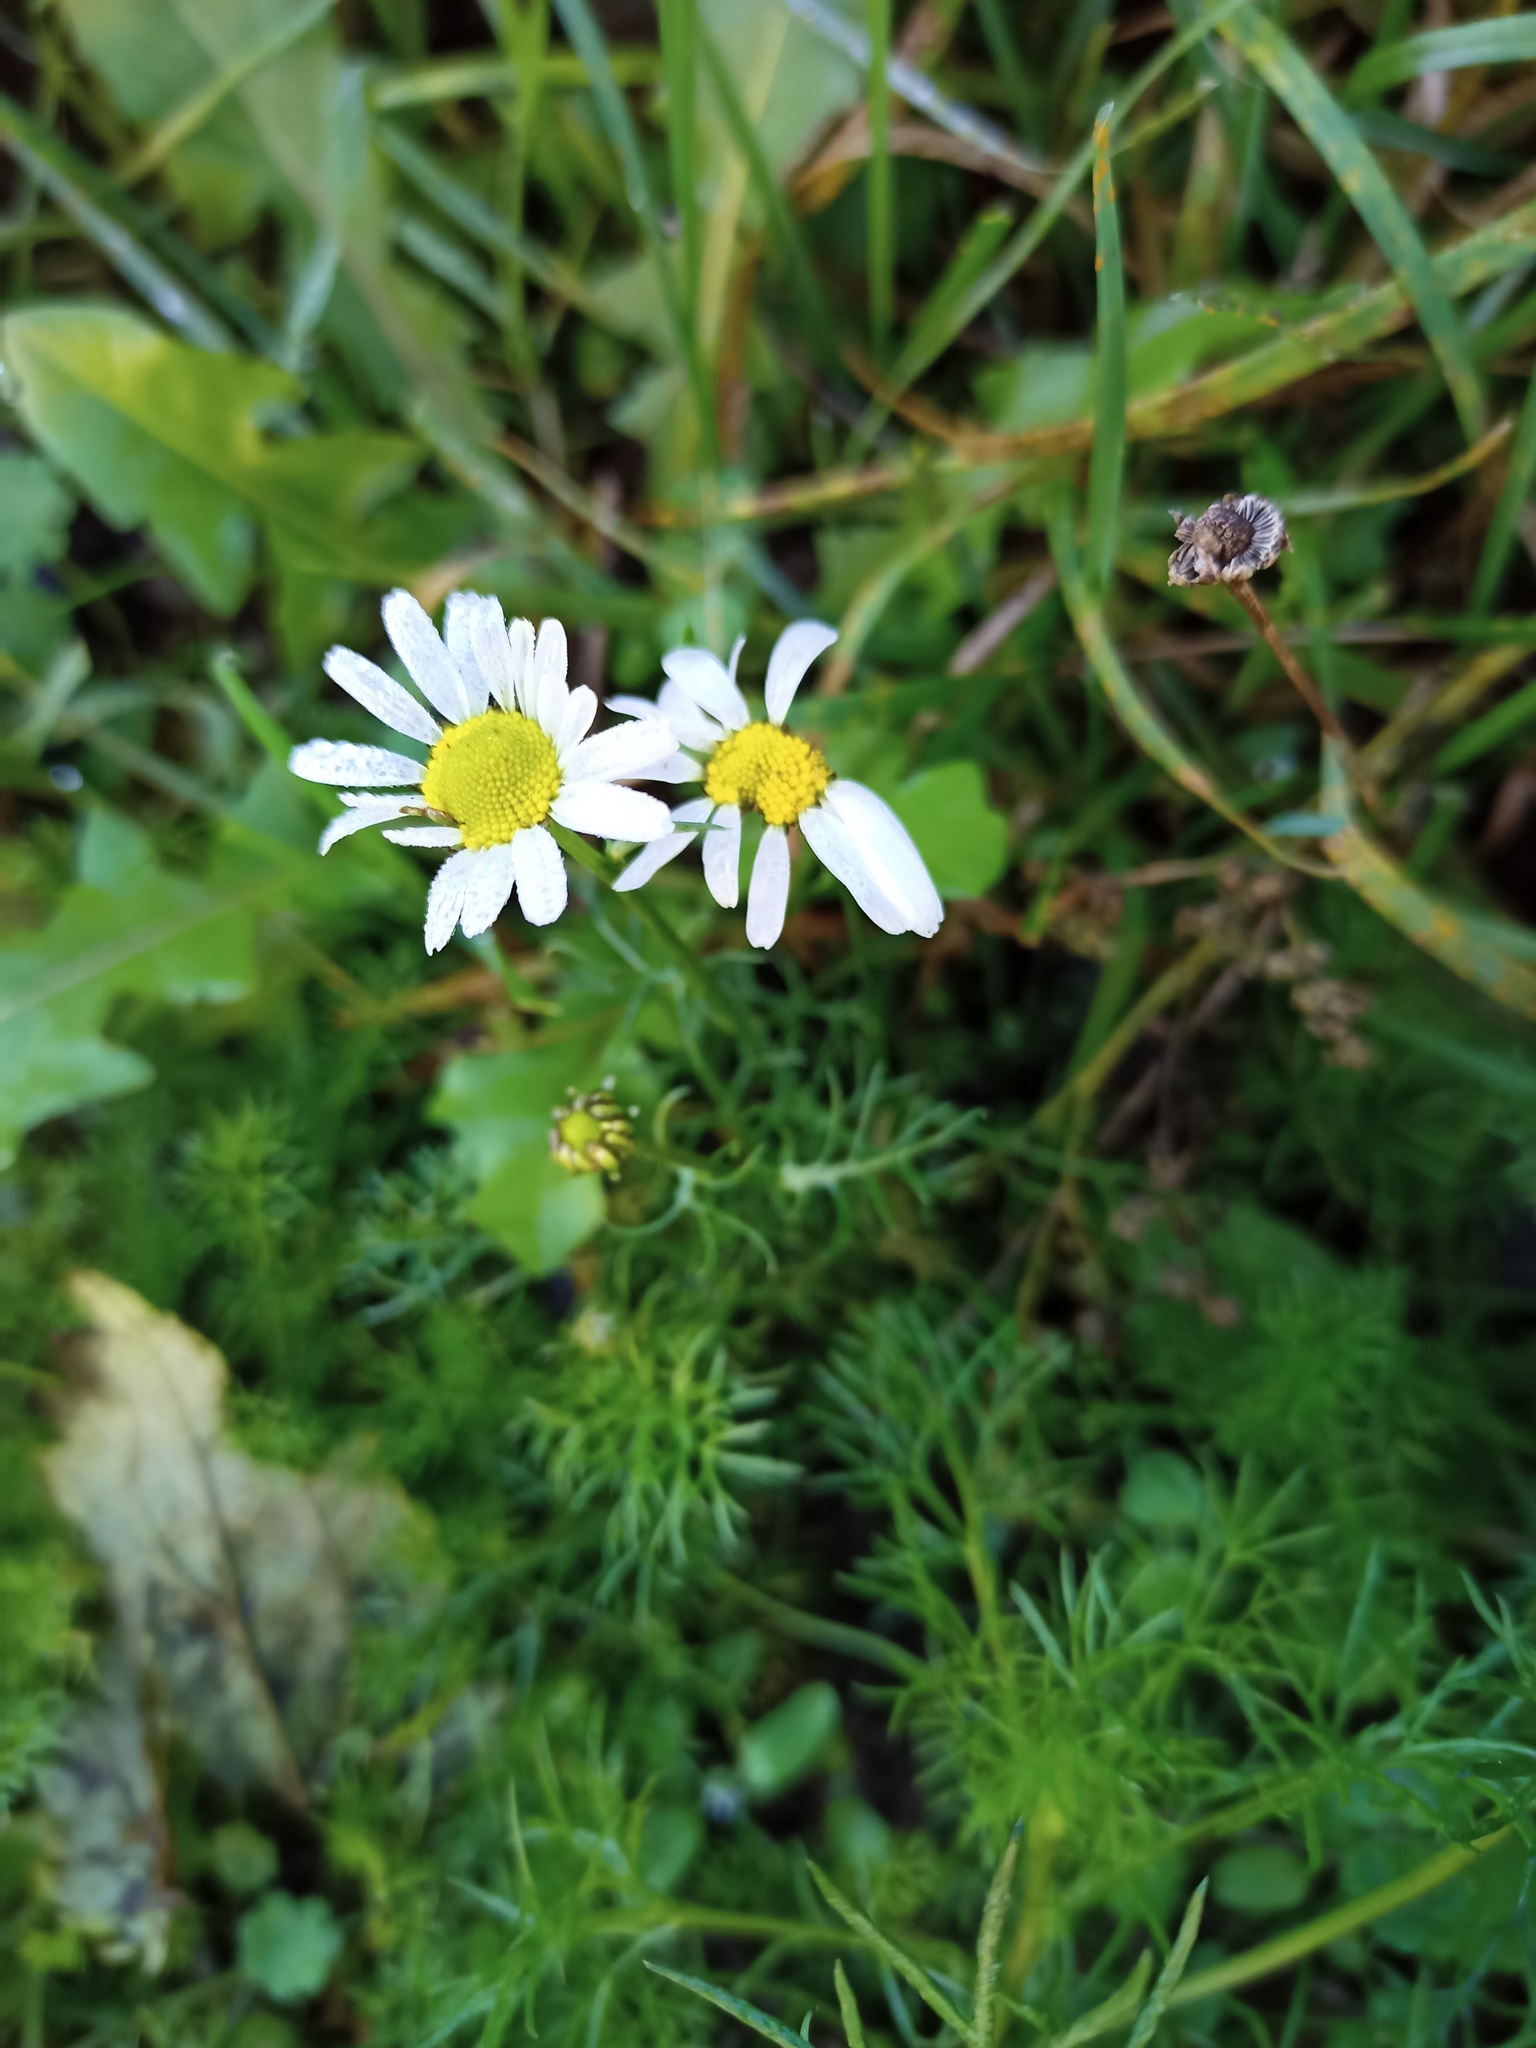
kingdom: Plantae
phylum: Tracheophyta
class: Magnoliopsida
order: Asterales
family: Asteraceae
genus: Tripleurospermum
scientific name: Tripleurospermum inodorum
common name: Scentless mayweed
